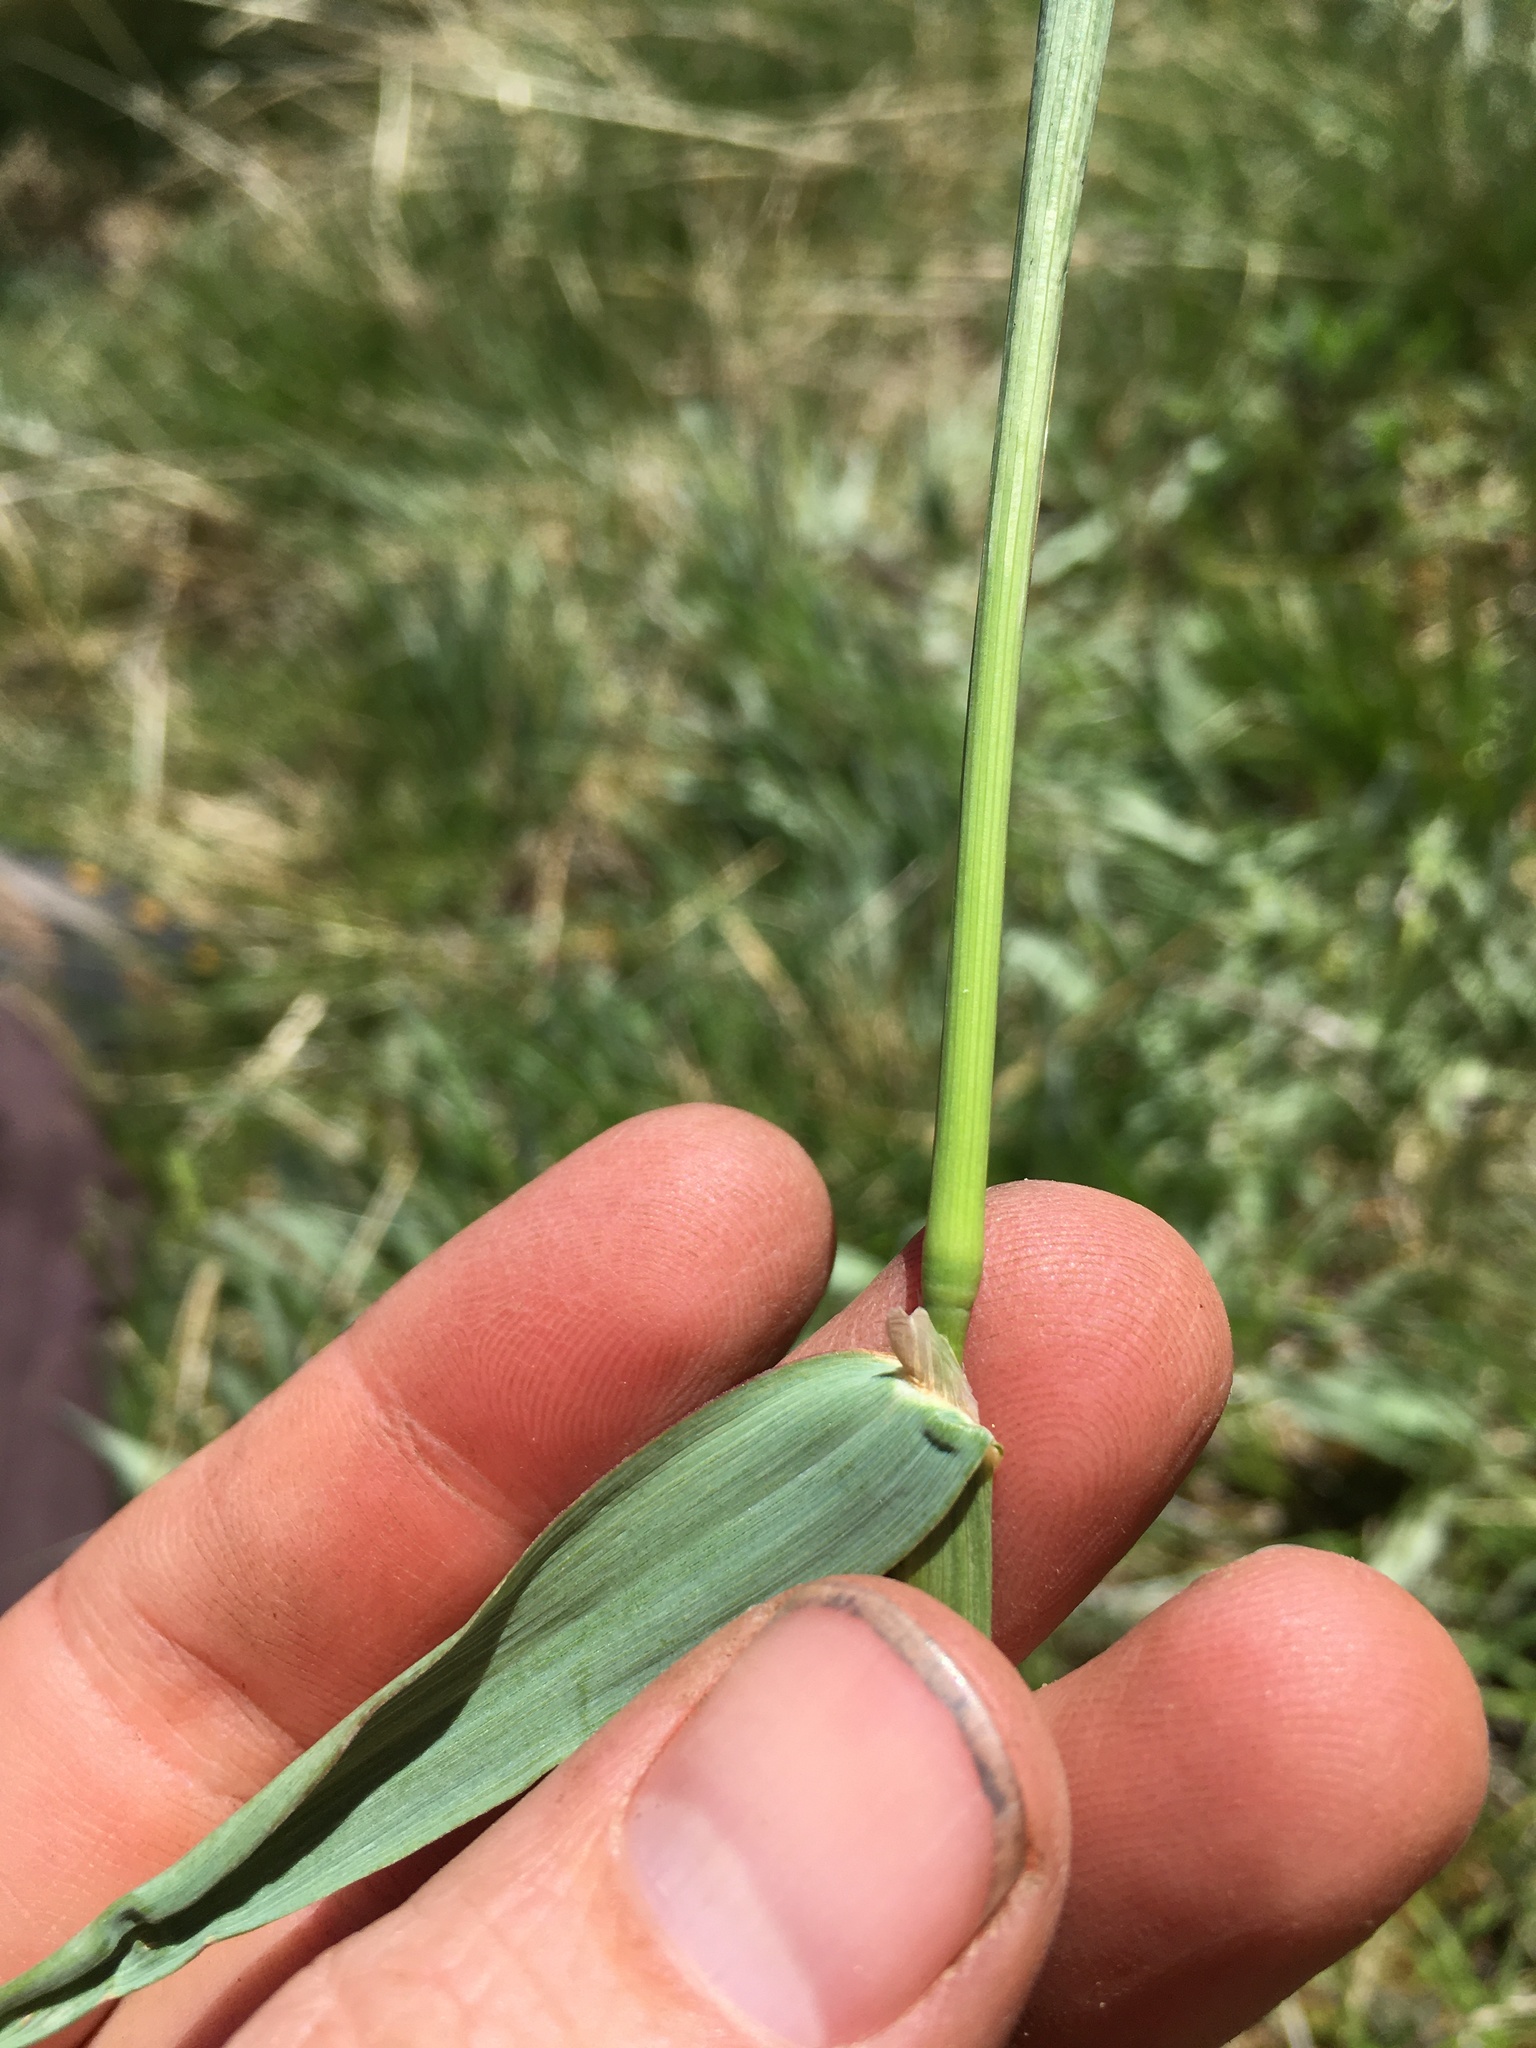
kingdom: Plantae
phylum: Tracheophyta
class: Liliopsida
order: Poales
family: Poaceae
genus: Phleum
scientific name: Phleum alpinum
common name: Alpine cat's-tail
